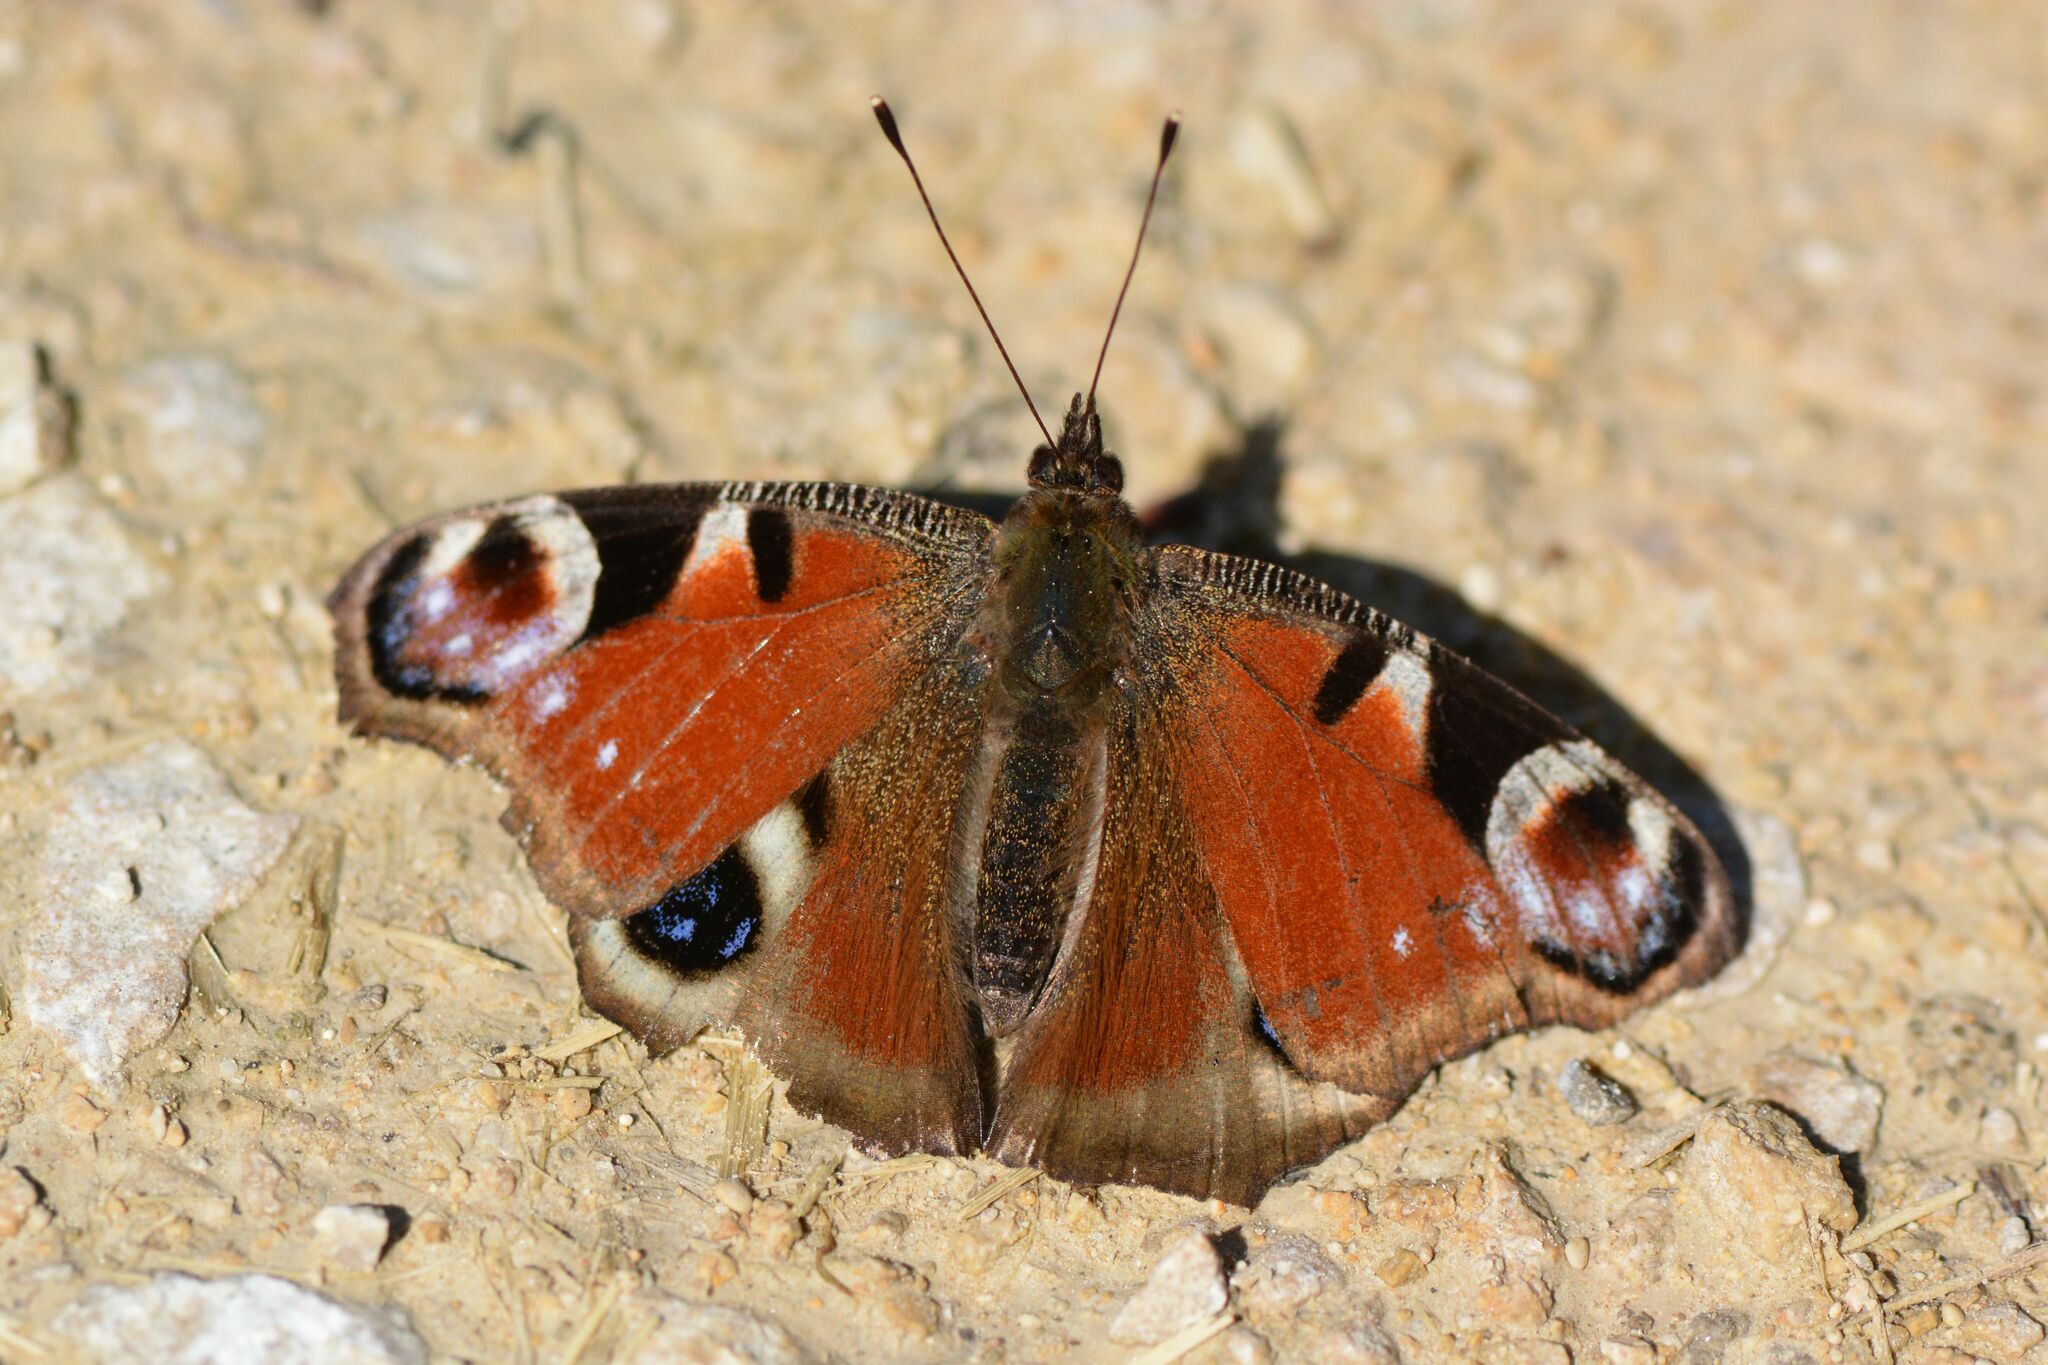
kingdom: Animalia
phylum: Arthropoda
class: Insecta
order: Lepidoptera
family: Nymphalidae
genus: Aglais
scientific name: Aglais io
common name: Peacock
